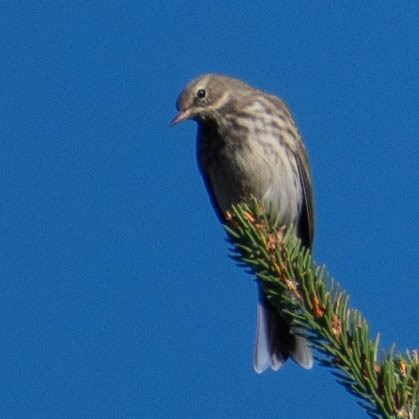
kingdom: Animalia
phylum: Chordata
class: Aves
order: Passeriformes
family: Motacillidae
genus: Anthus
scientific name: Anthus spinoletta
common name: Water pipit
